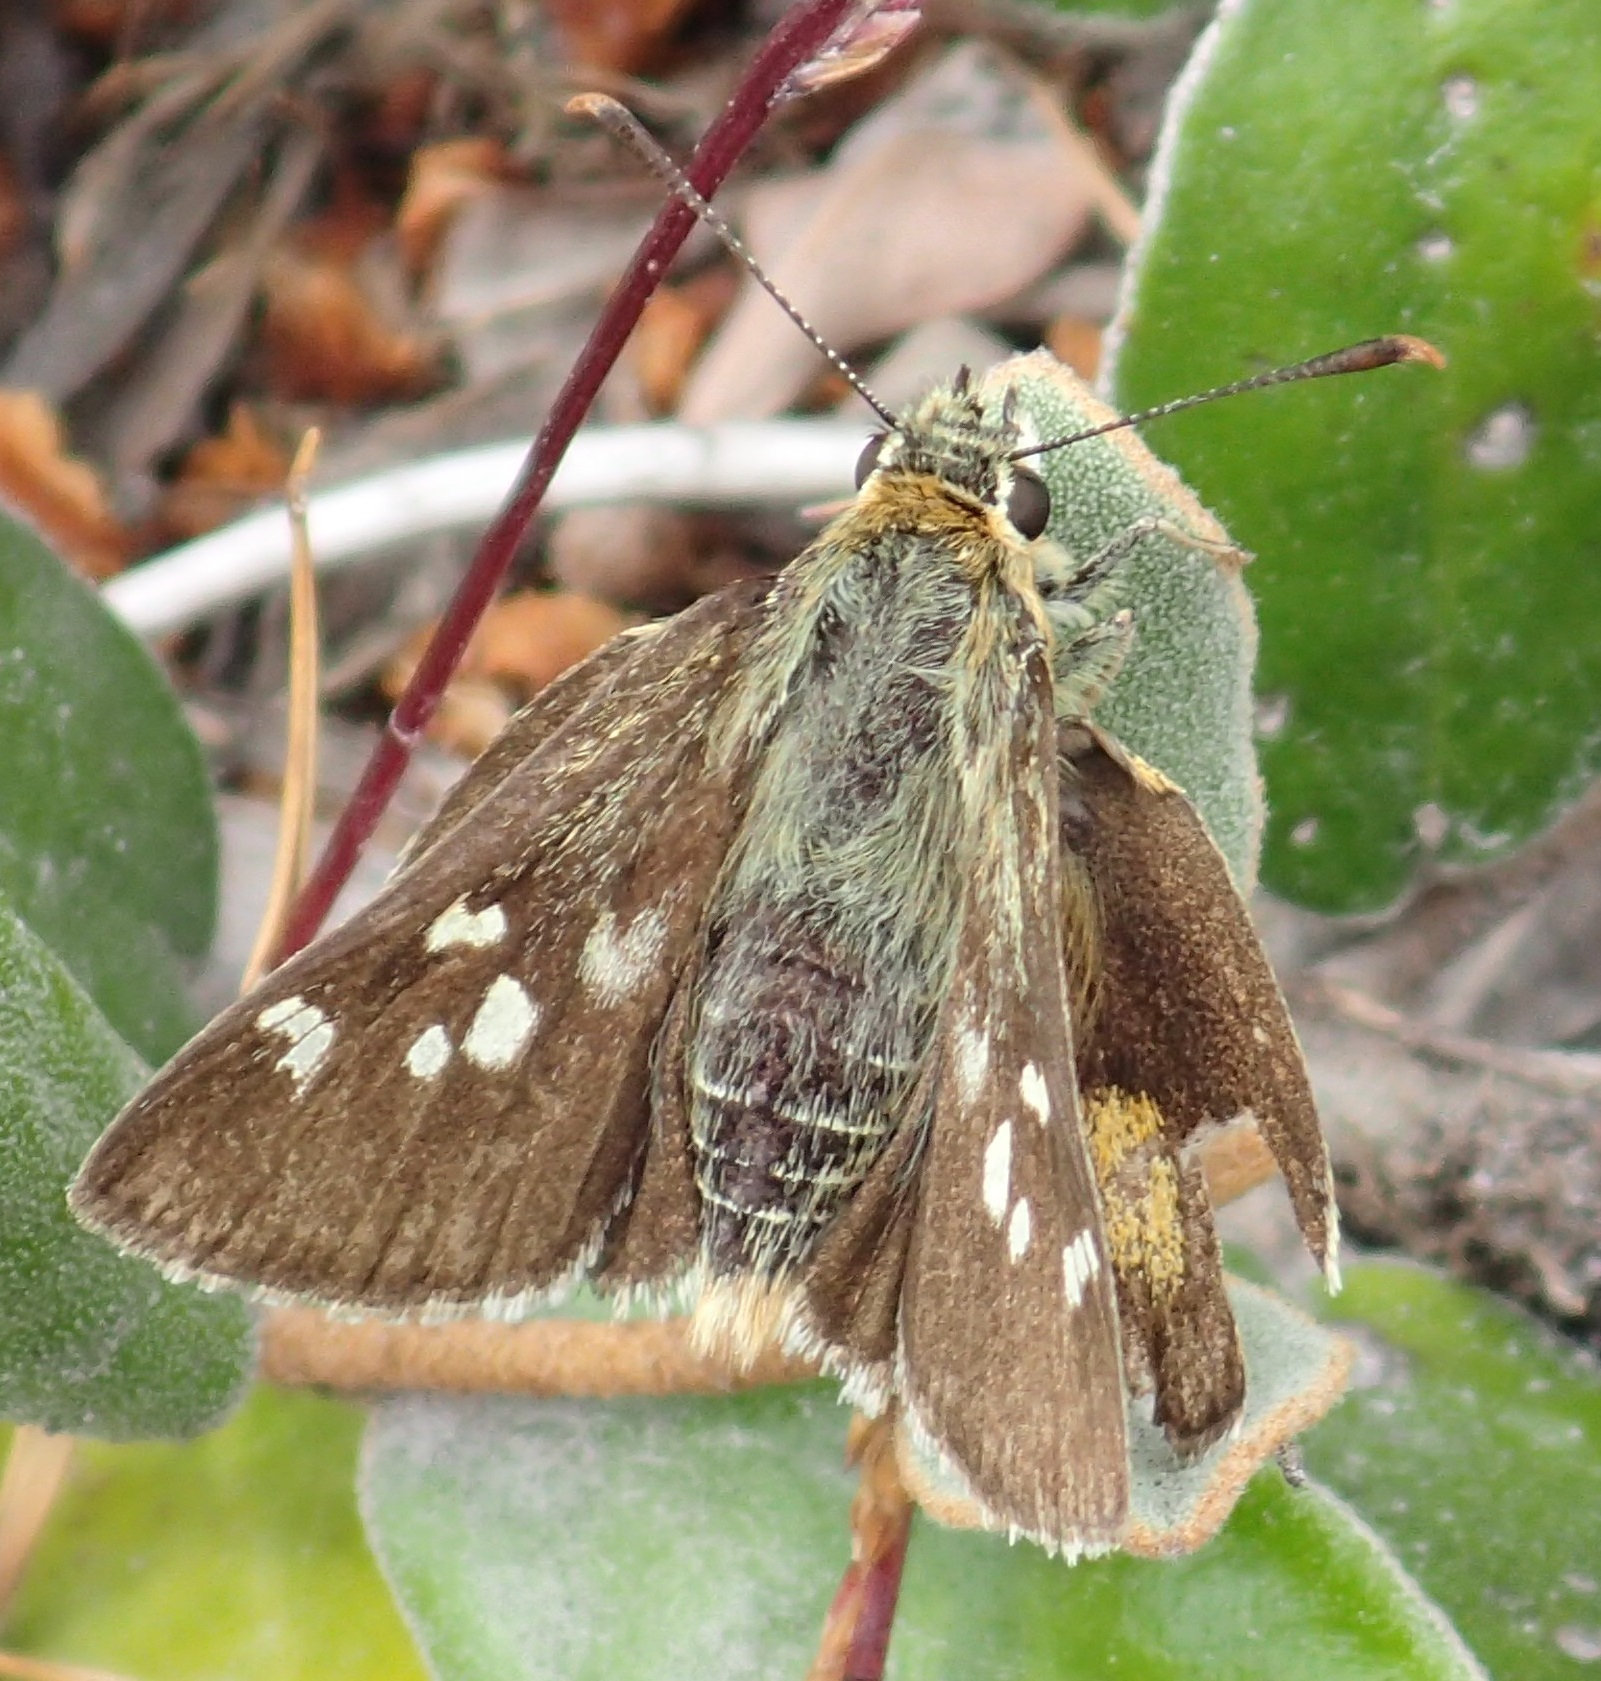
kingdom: Animalia
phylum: Arthropoda
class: Insecta
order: Lepidoptera
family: Hesperiidae
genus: Trapezites
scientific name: Trapezites lutea
